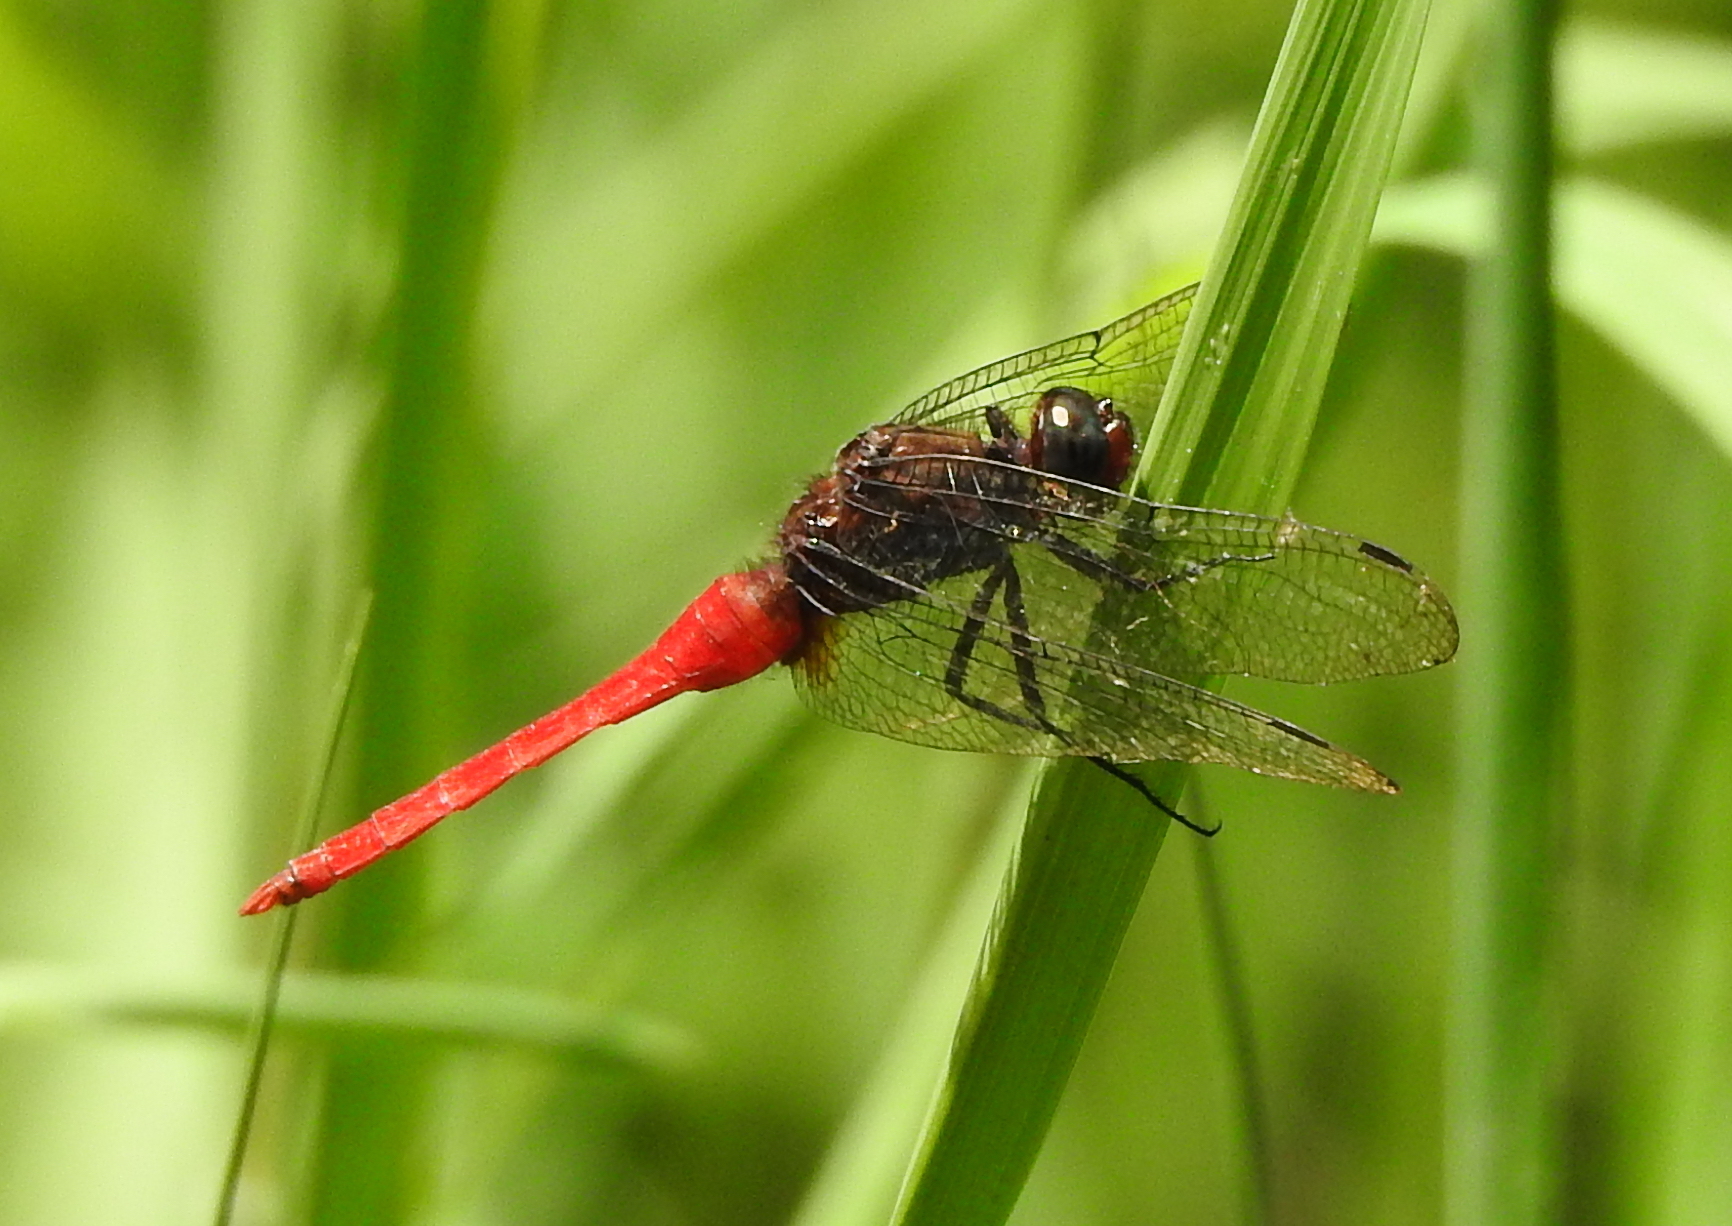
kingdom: Animalia
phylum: Arthropoda
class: Insecta
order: Odonata
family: Libellulidae
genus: Orthetrum
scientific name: Orthetrum chrysis
